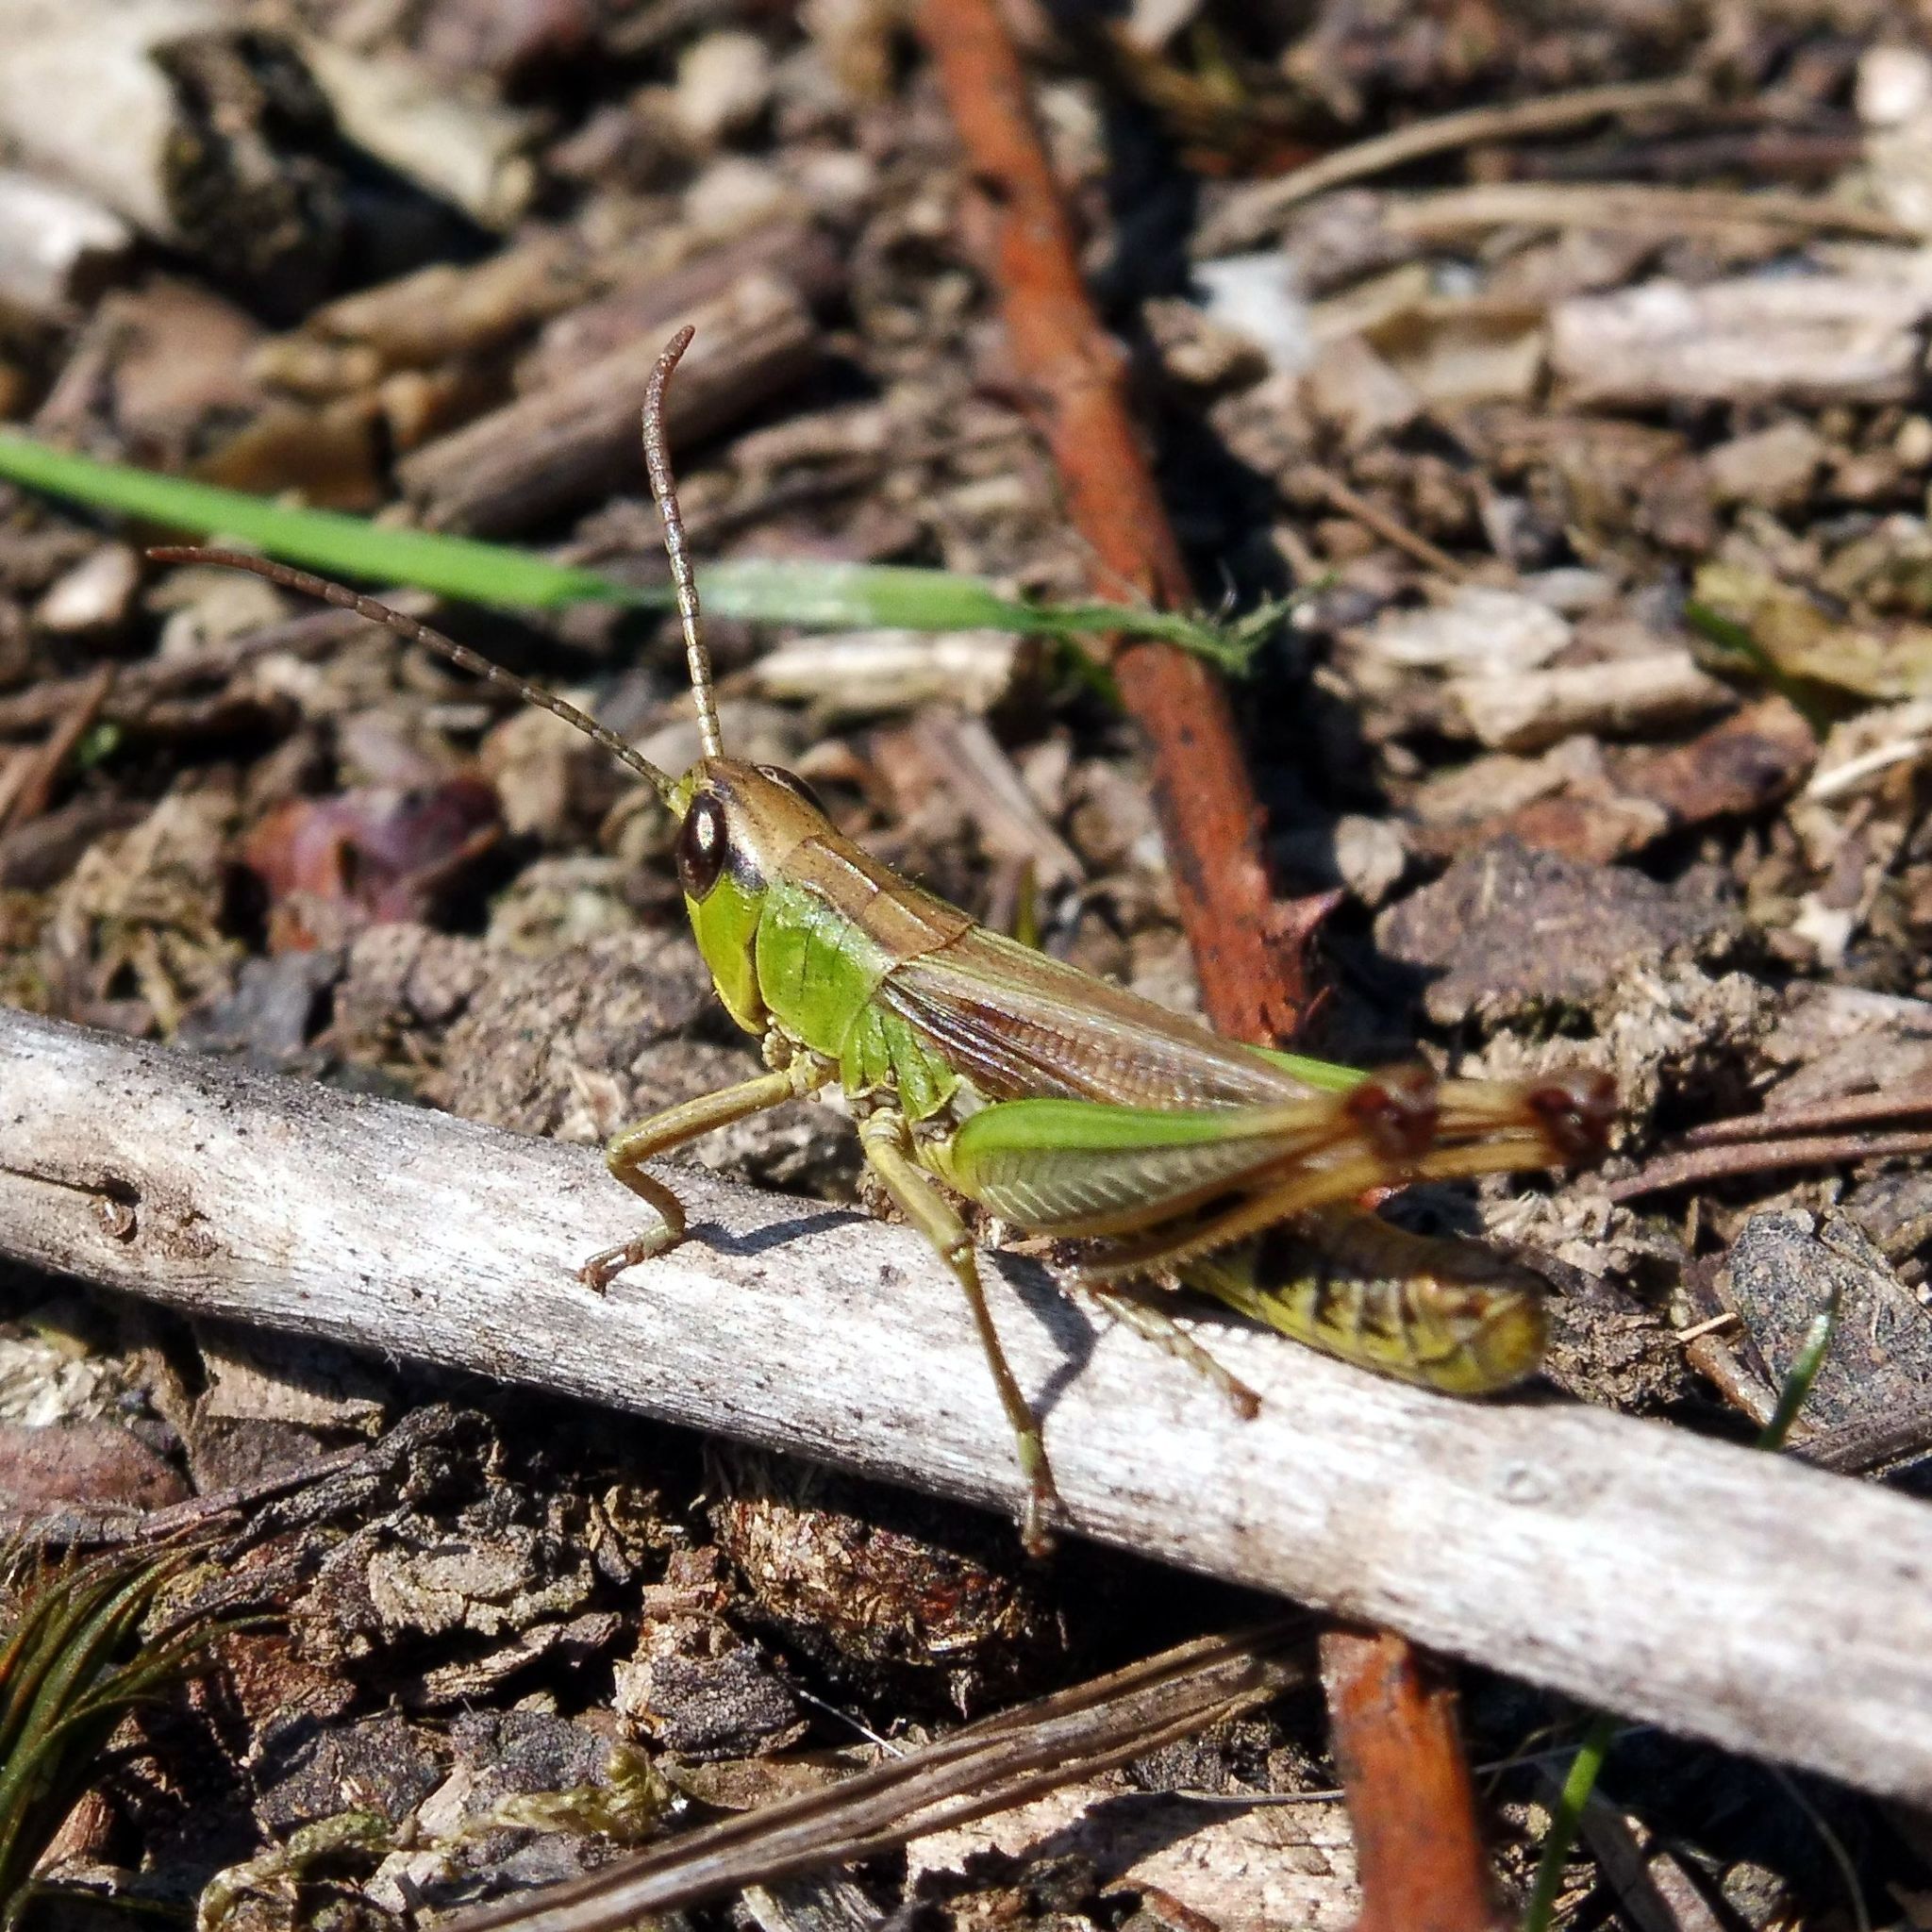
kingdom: Animalia
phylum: Arthropoda
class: Insecta
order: Orthoptera
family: Acrididae
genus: Pseudochorthippus
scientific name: Pseudochorthippus parallelus
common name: Meadow grasshopper
